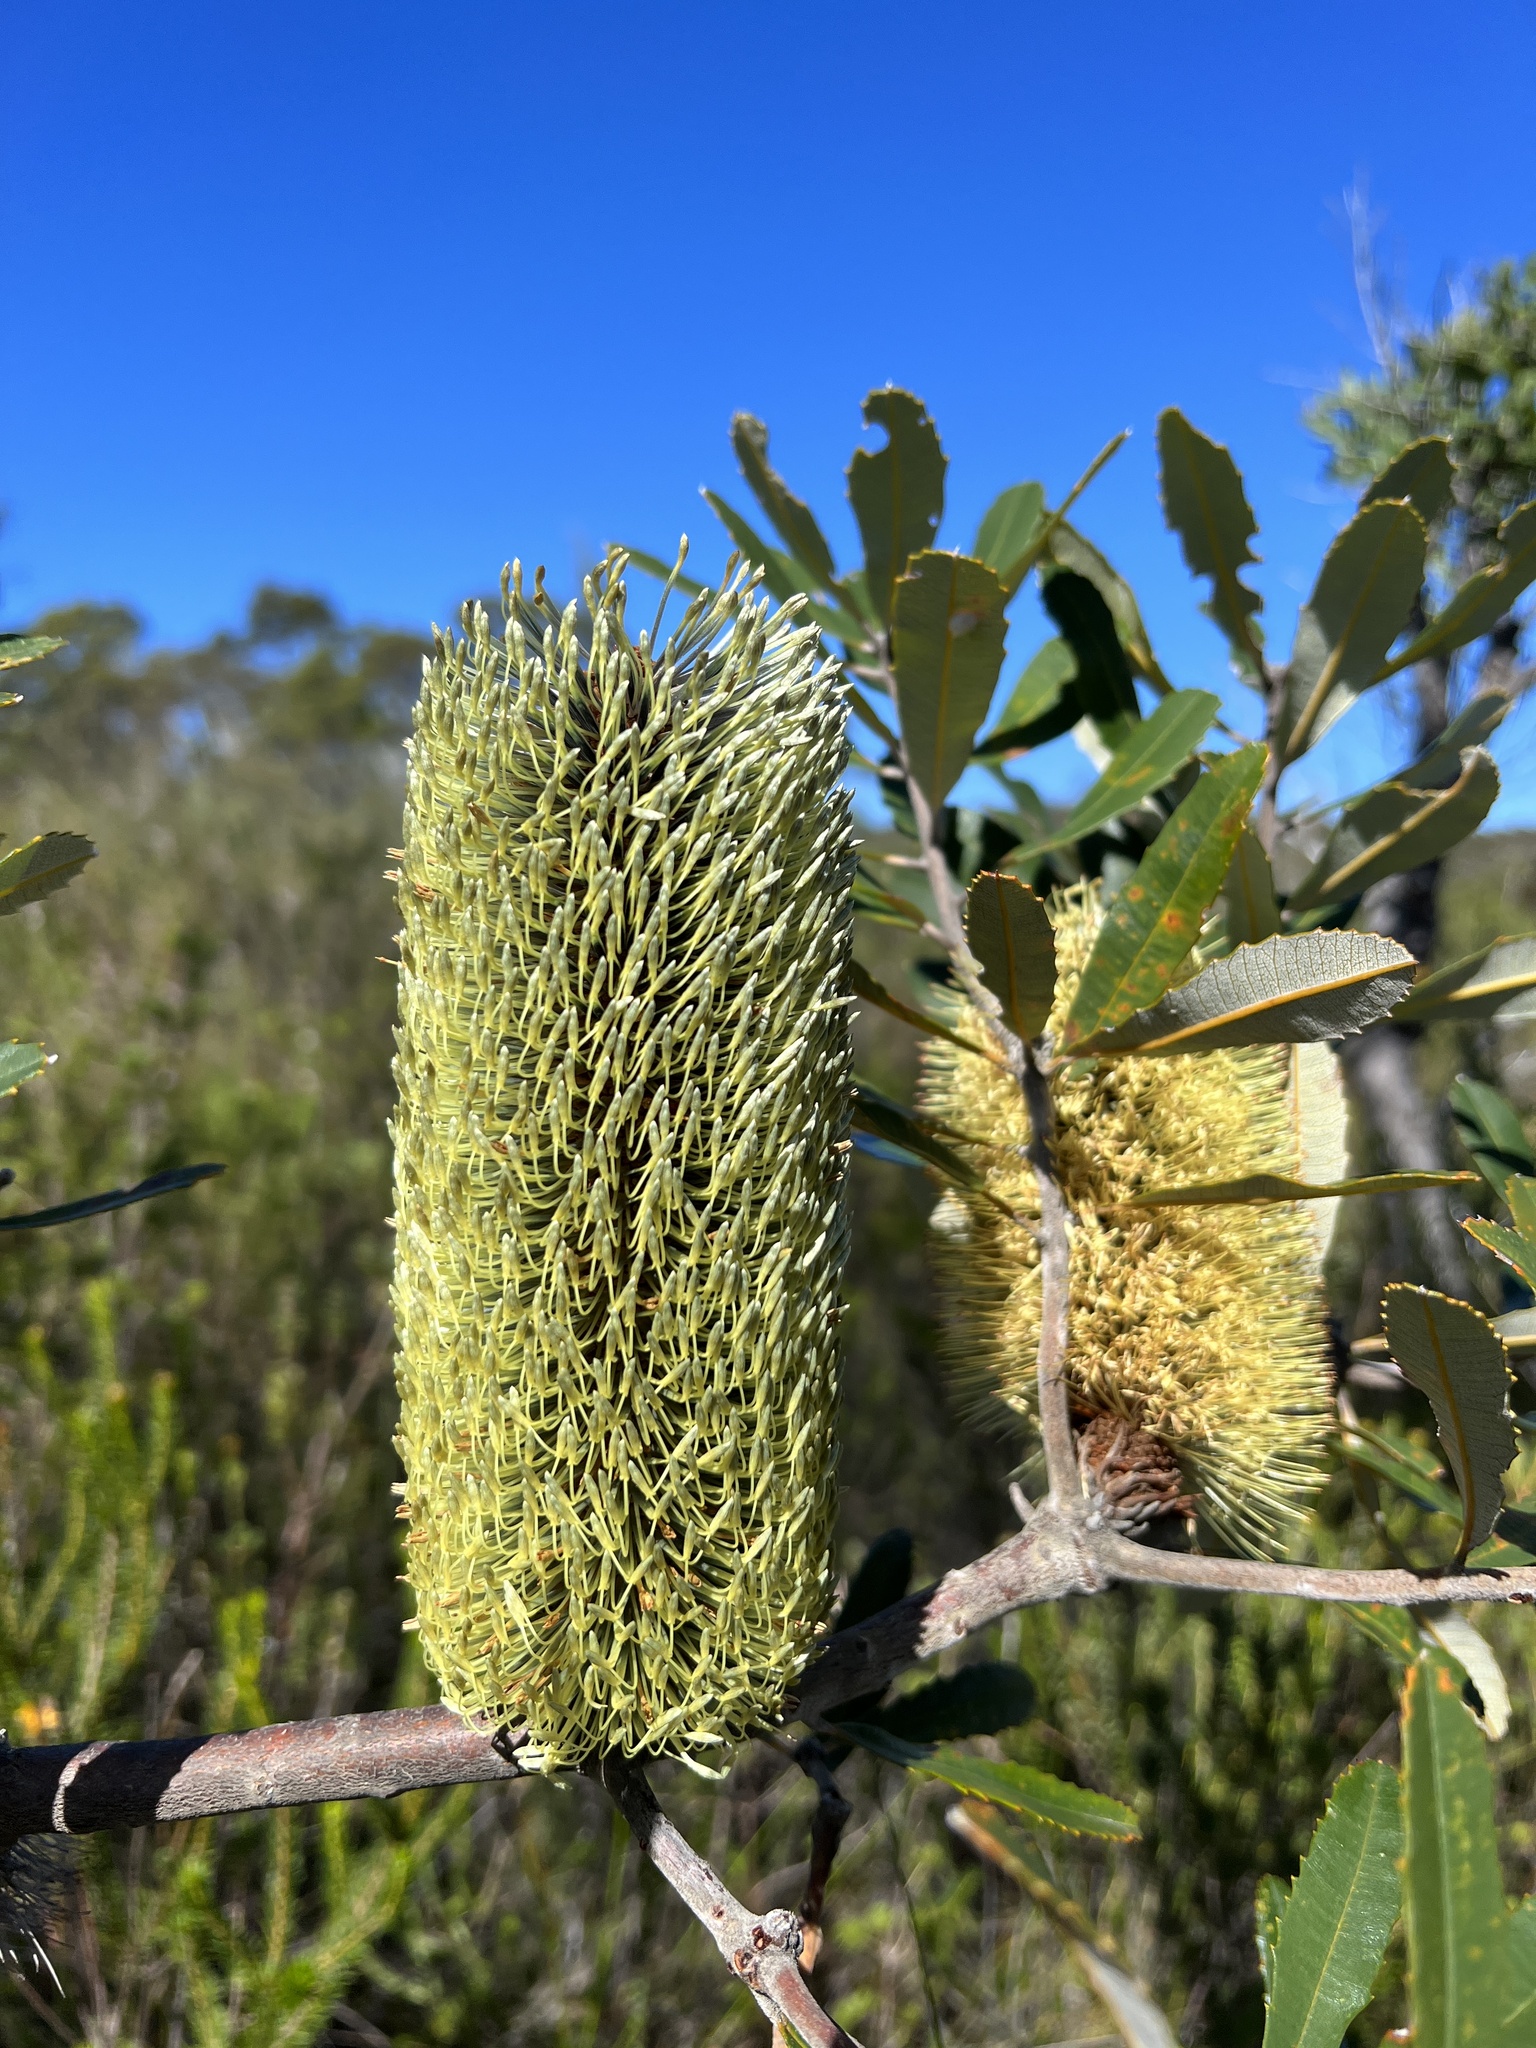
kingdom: Plantae
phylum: Tracheophyta
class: Magnoliopsida
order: Proteales
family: Proteaceae
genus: Banksia
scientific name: Banksia serrata
